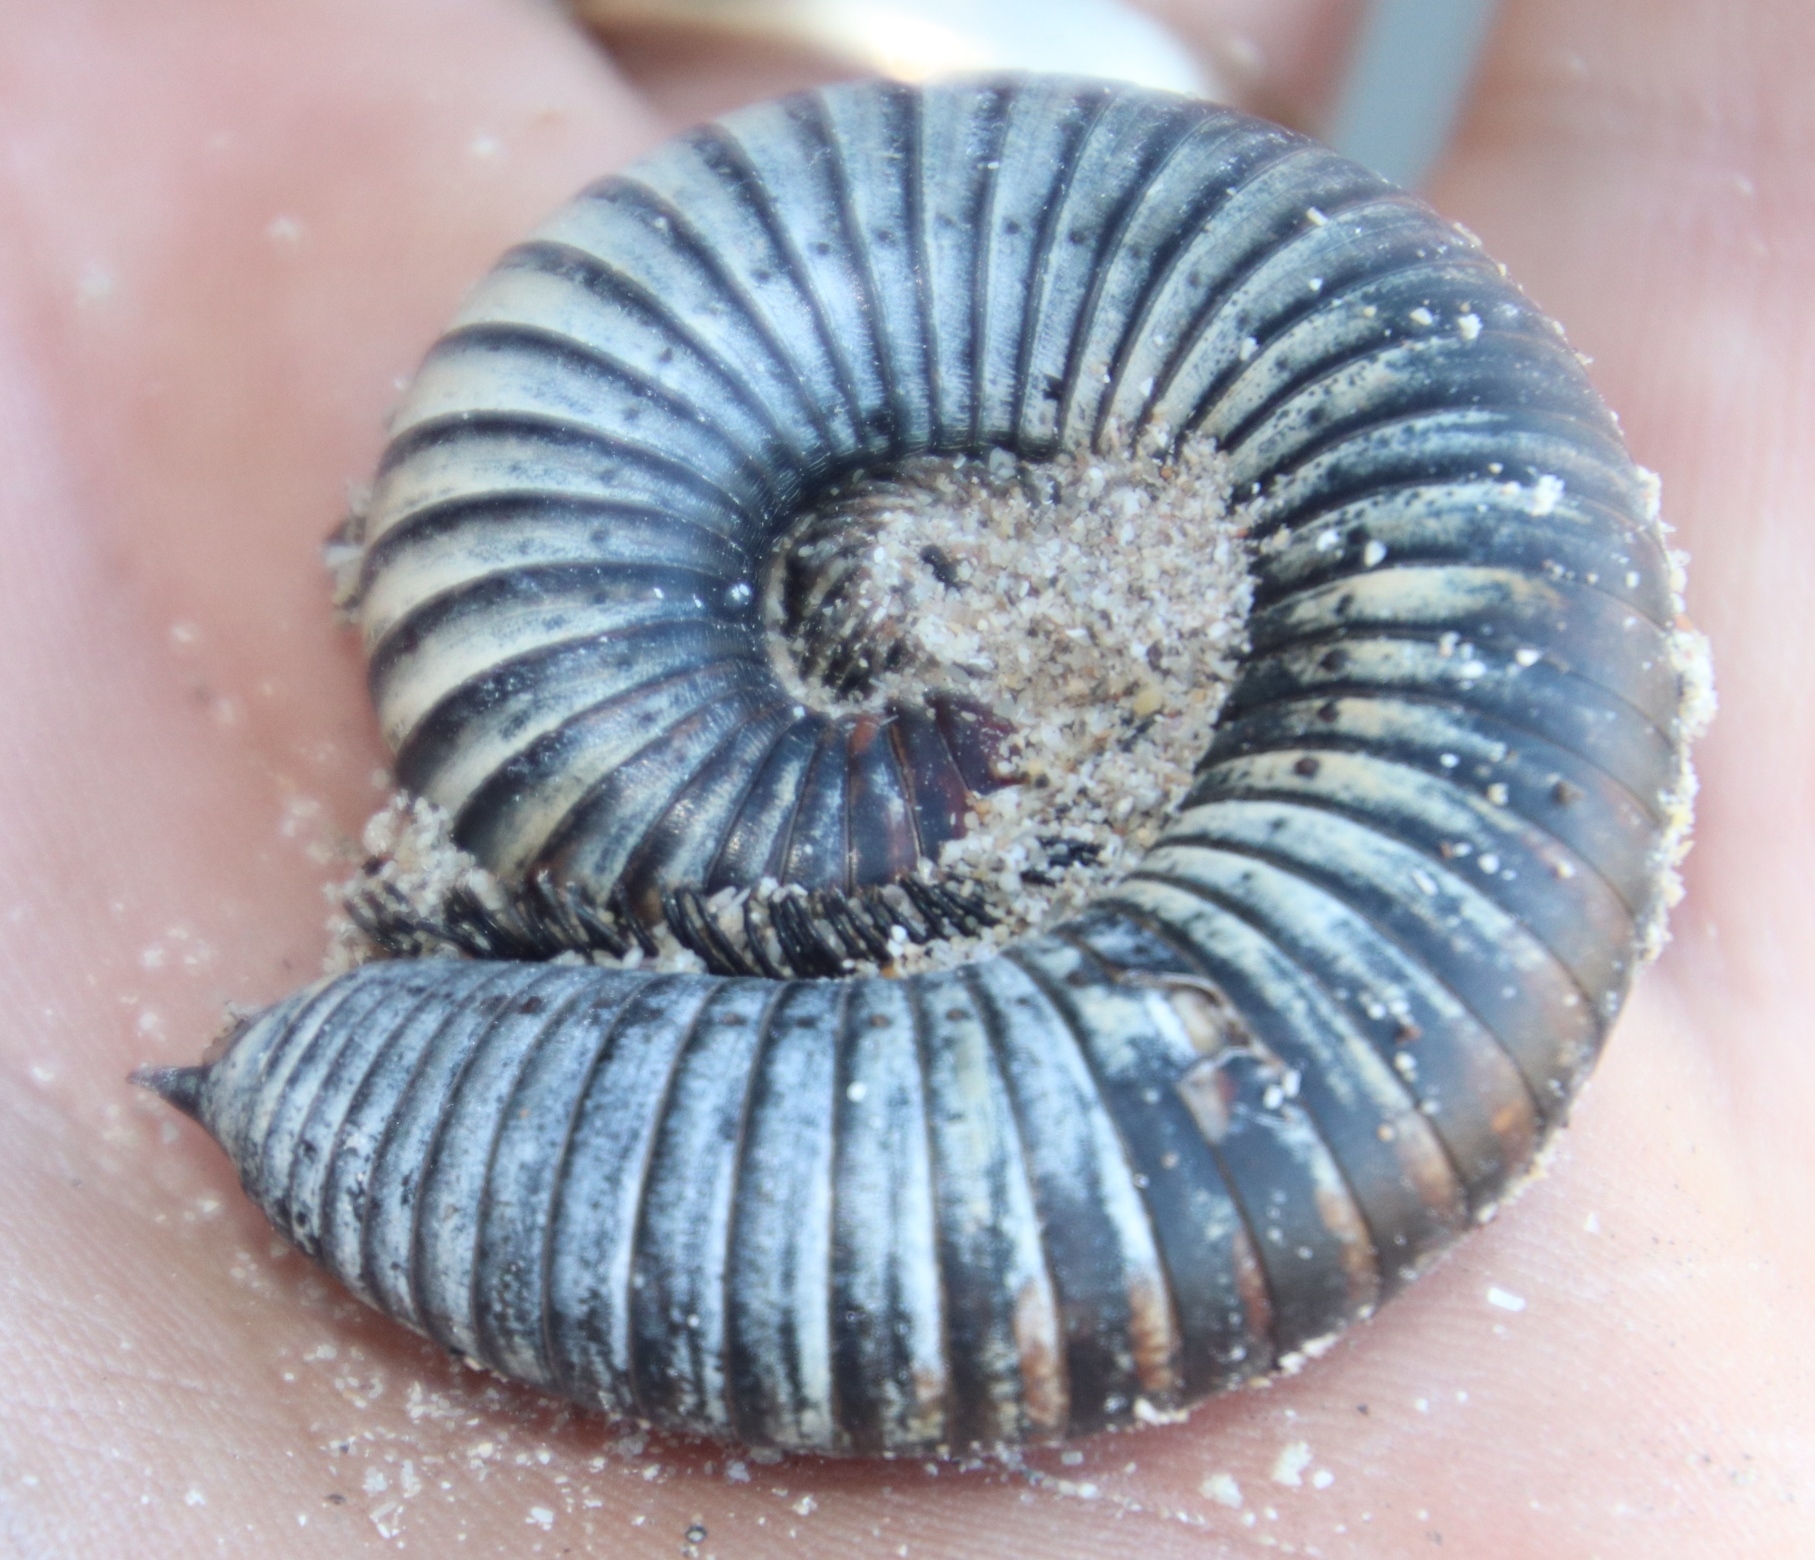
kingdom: Animalia
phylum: Arthropoda
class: Diplopoda
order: Spirostreptida
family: Harpagophoridae
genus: Harpagophora
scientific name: Harpagophora attenuata
